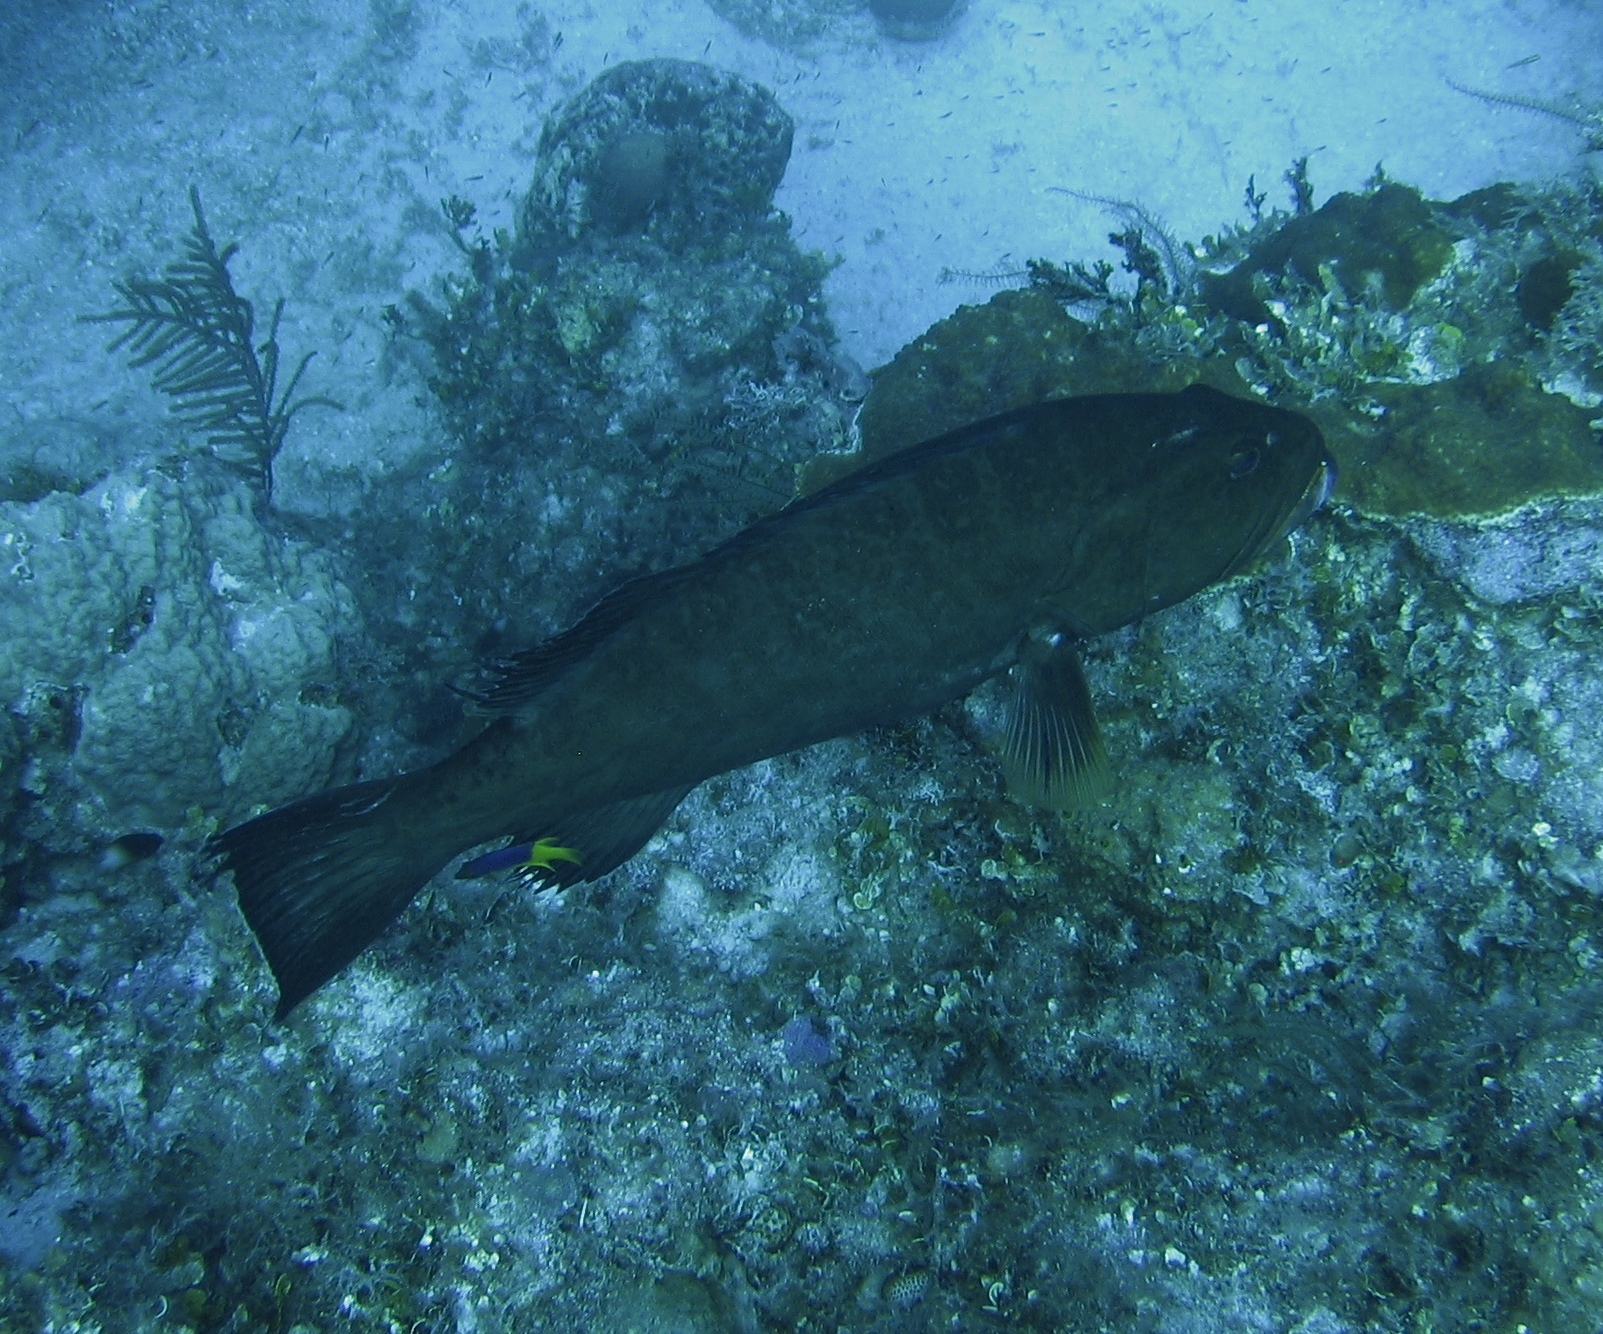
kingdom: Animalia
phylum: Chordata
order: Perciformes
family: Serranidae
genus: Mycteroperca
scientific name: Mycteroperca tigris
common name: Tiger grouper
